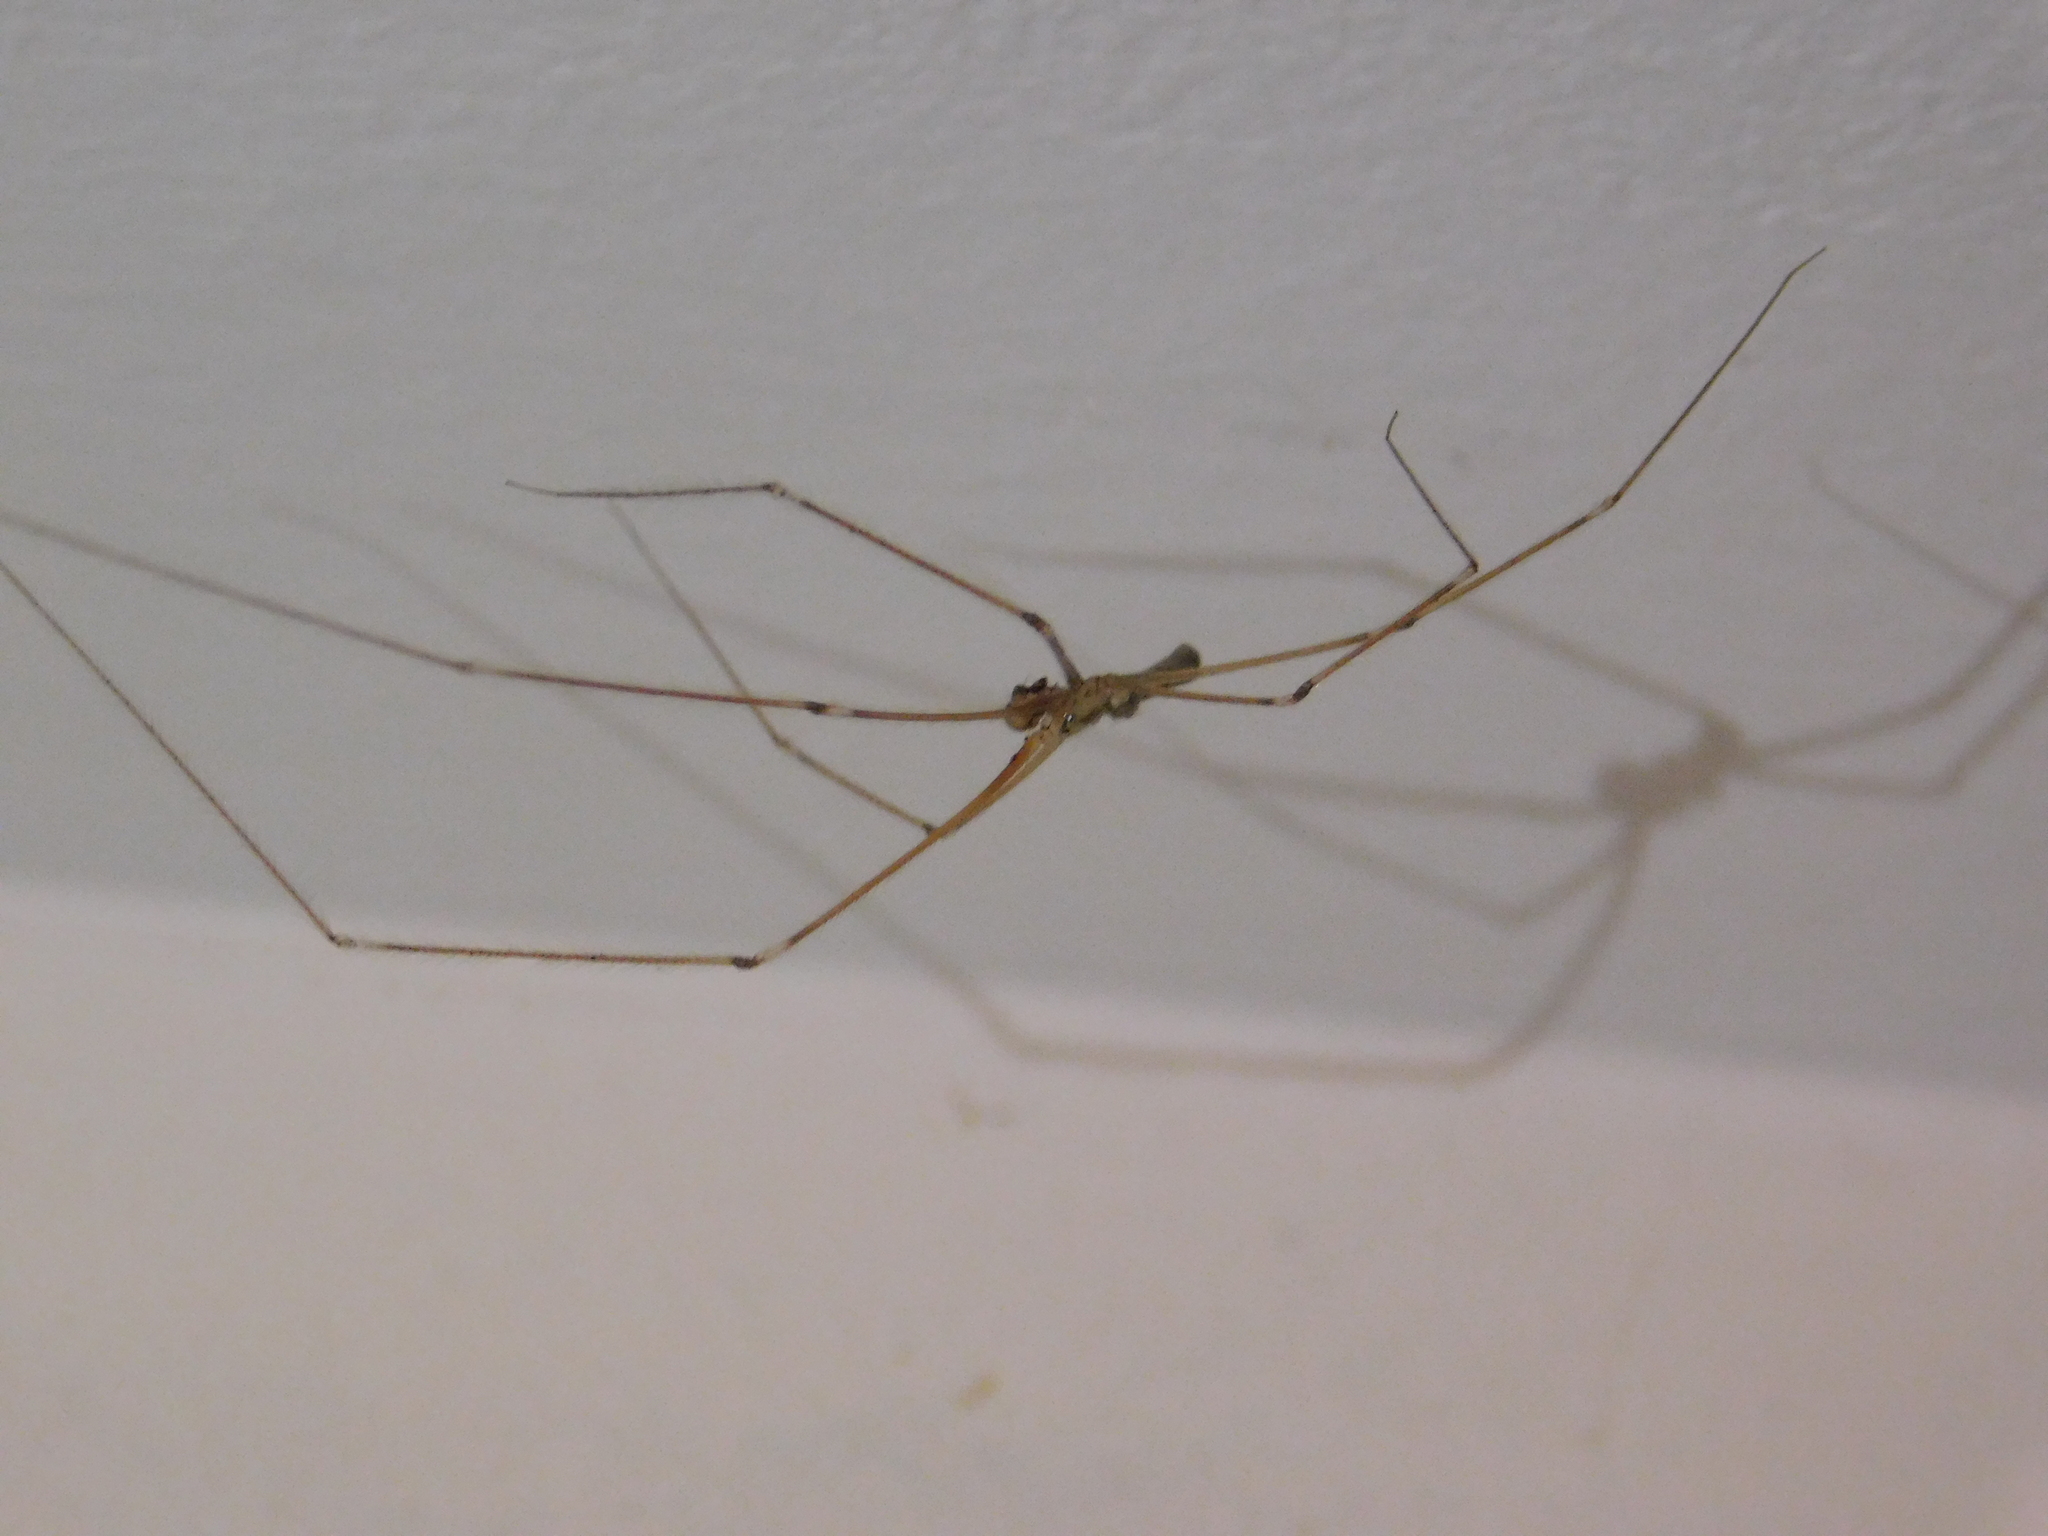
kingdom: Animalia
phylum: Arthropoda
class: Arachnida
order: Araneae
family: Pholcidae
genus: Pholcus
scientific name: Pholcus phalangioides
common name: Longbodied cellar spider
